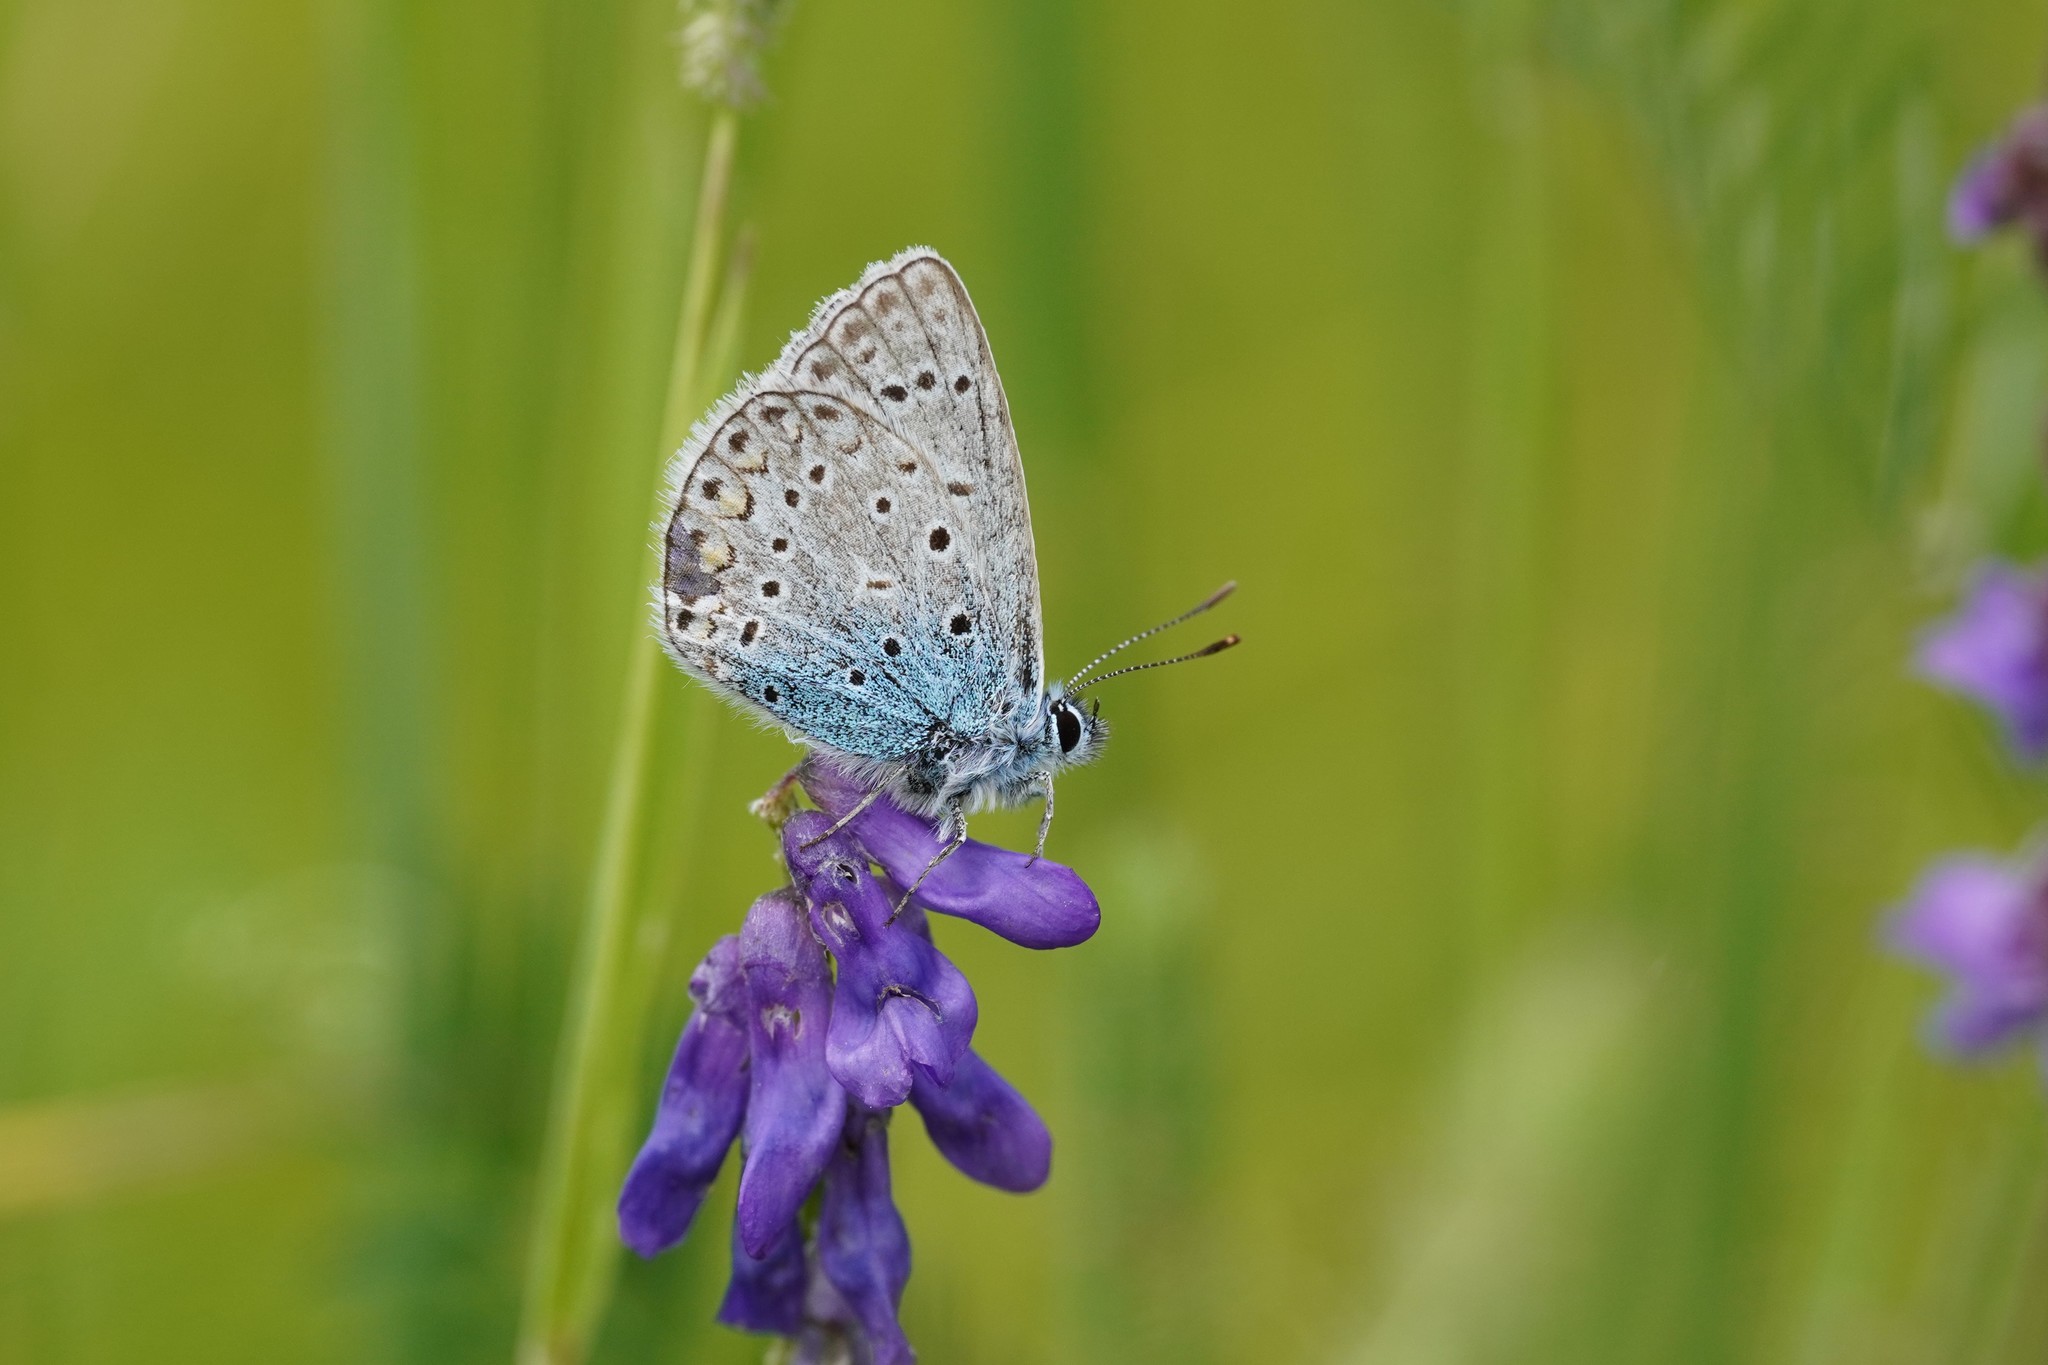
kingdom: Animalia
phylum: Arthropoda
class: Insecta
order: Lepidoptera
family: Lycaenidae
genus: Polyommatus
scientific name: Polyommatus icarus
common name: Common blue
